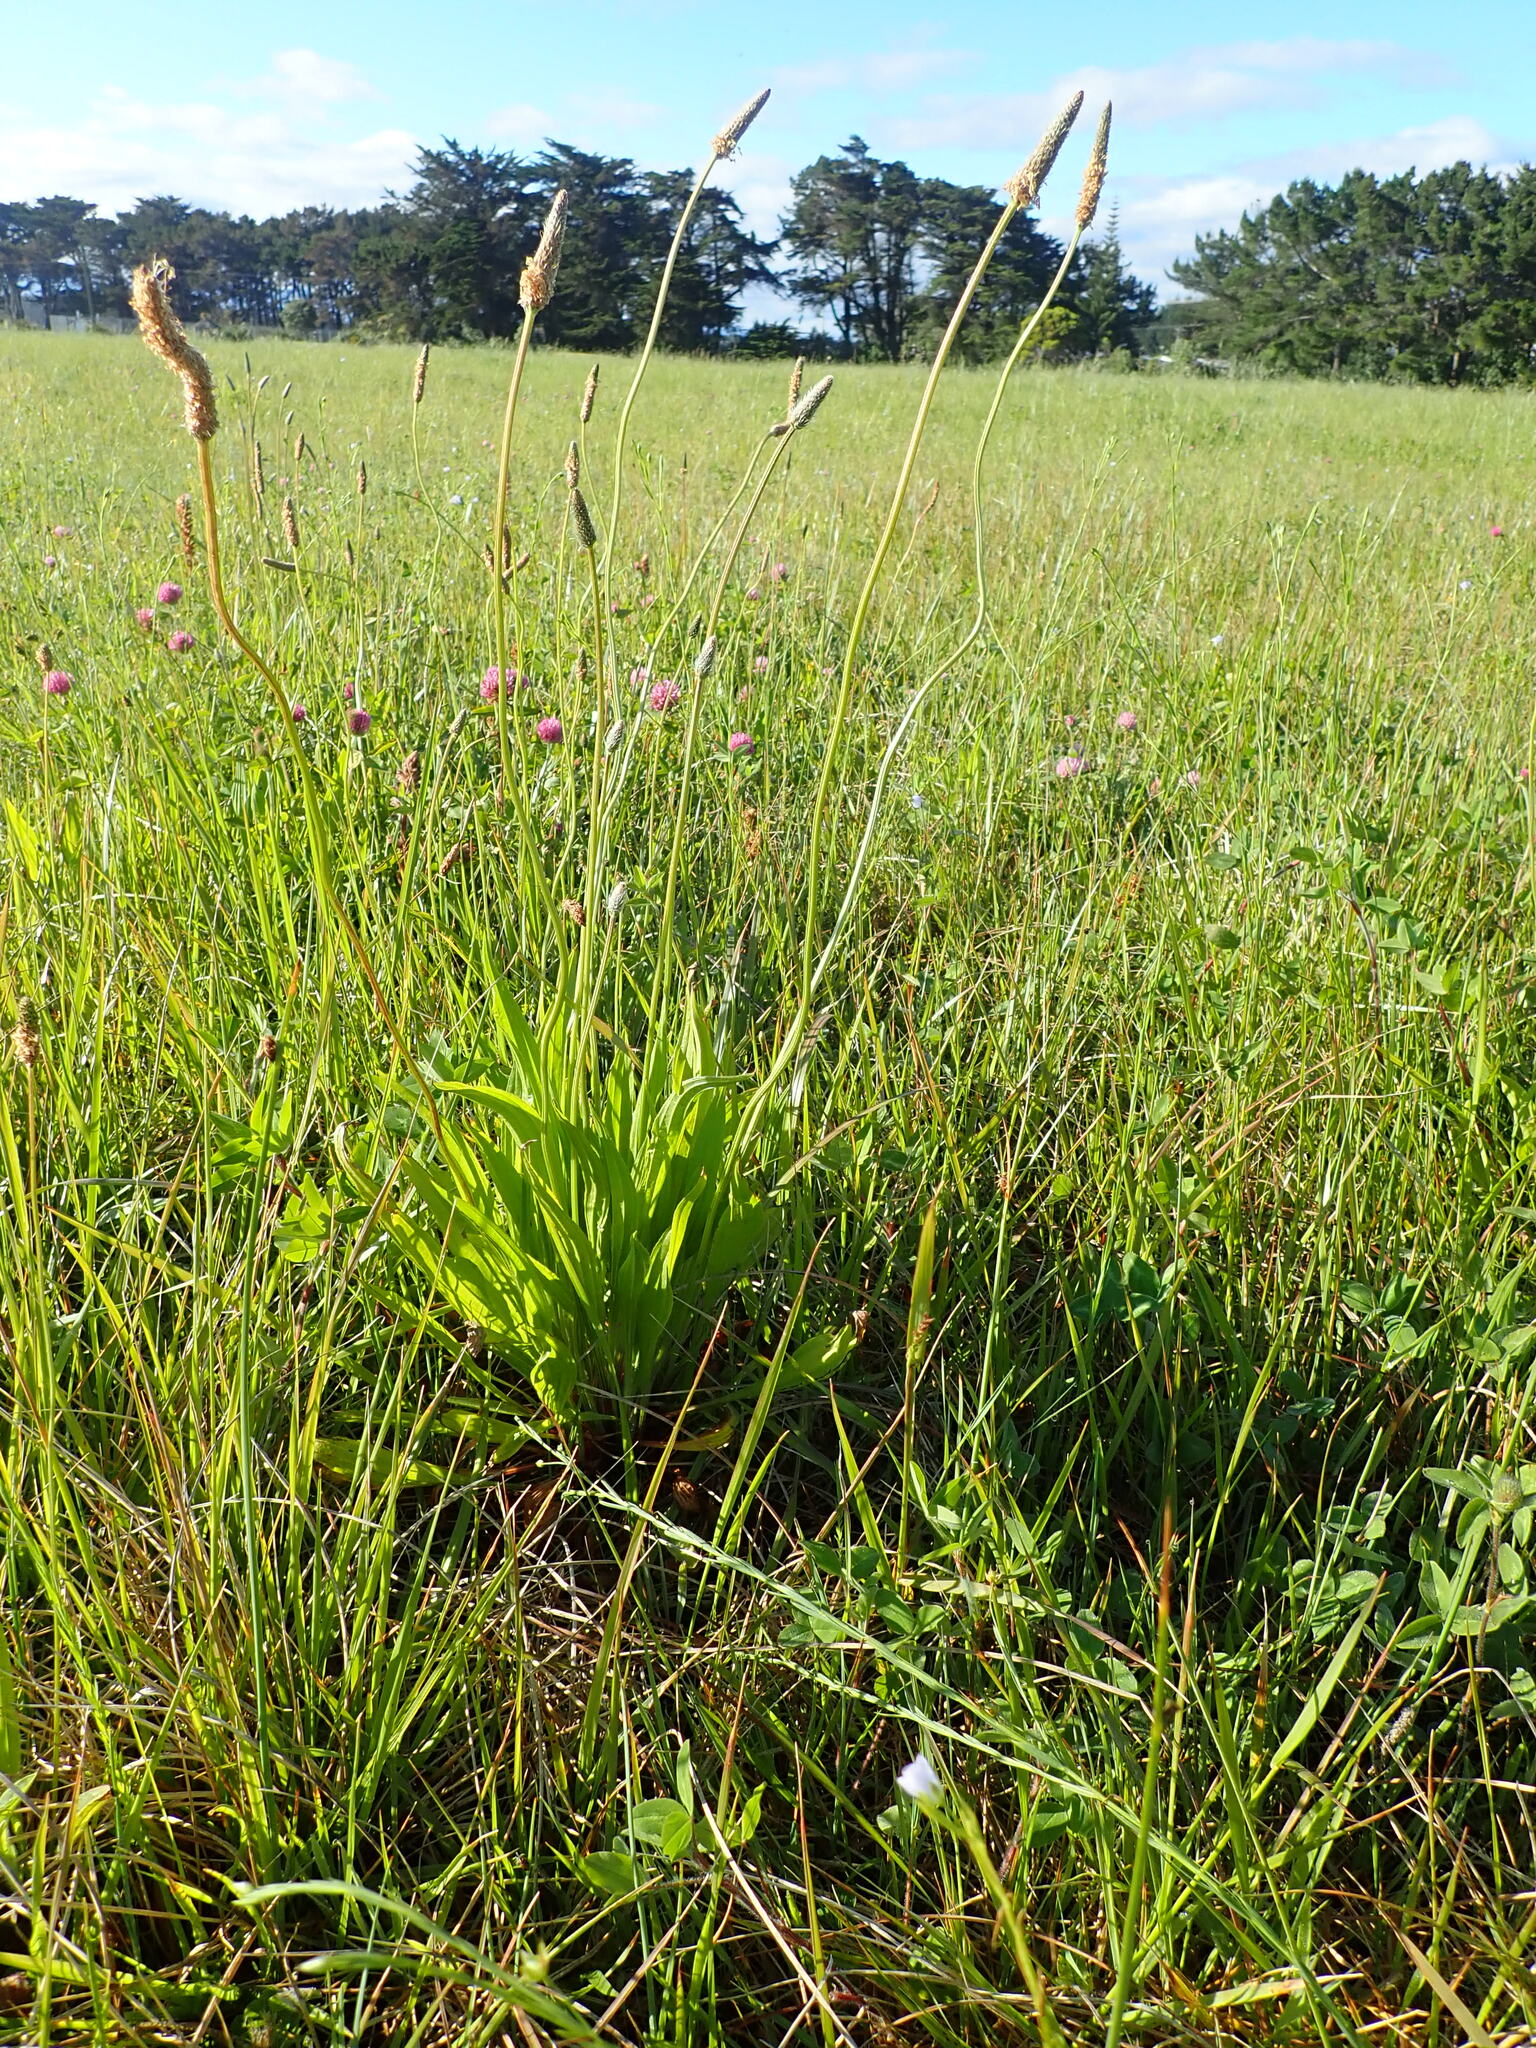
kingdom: Plantae
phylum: Tracheophyta
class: Magnoliopsida
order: Lamiales
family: Plantaginaceae
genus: Plantago
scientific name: Plantago lanceolata
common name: Ribwort plantain
